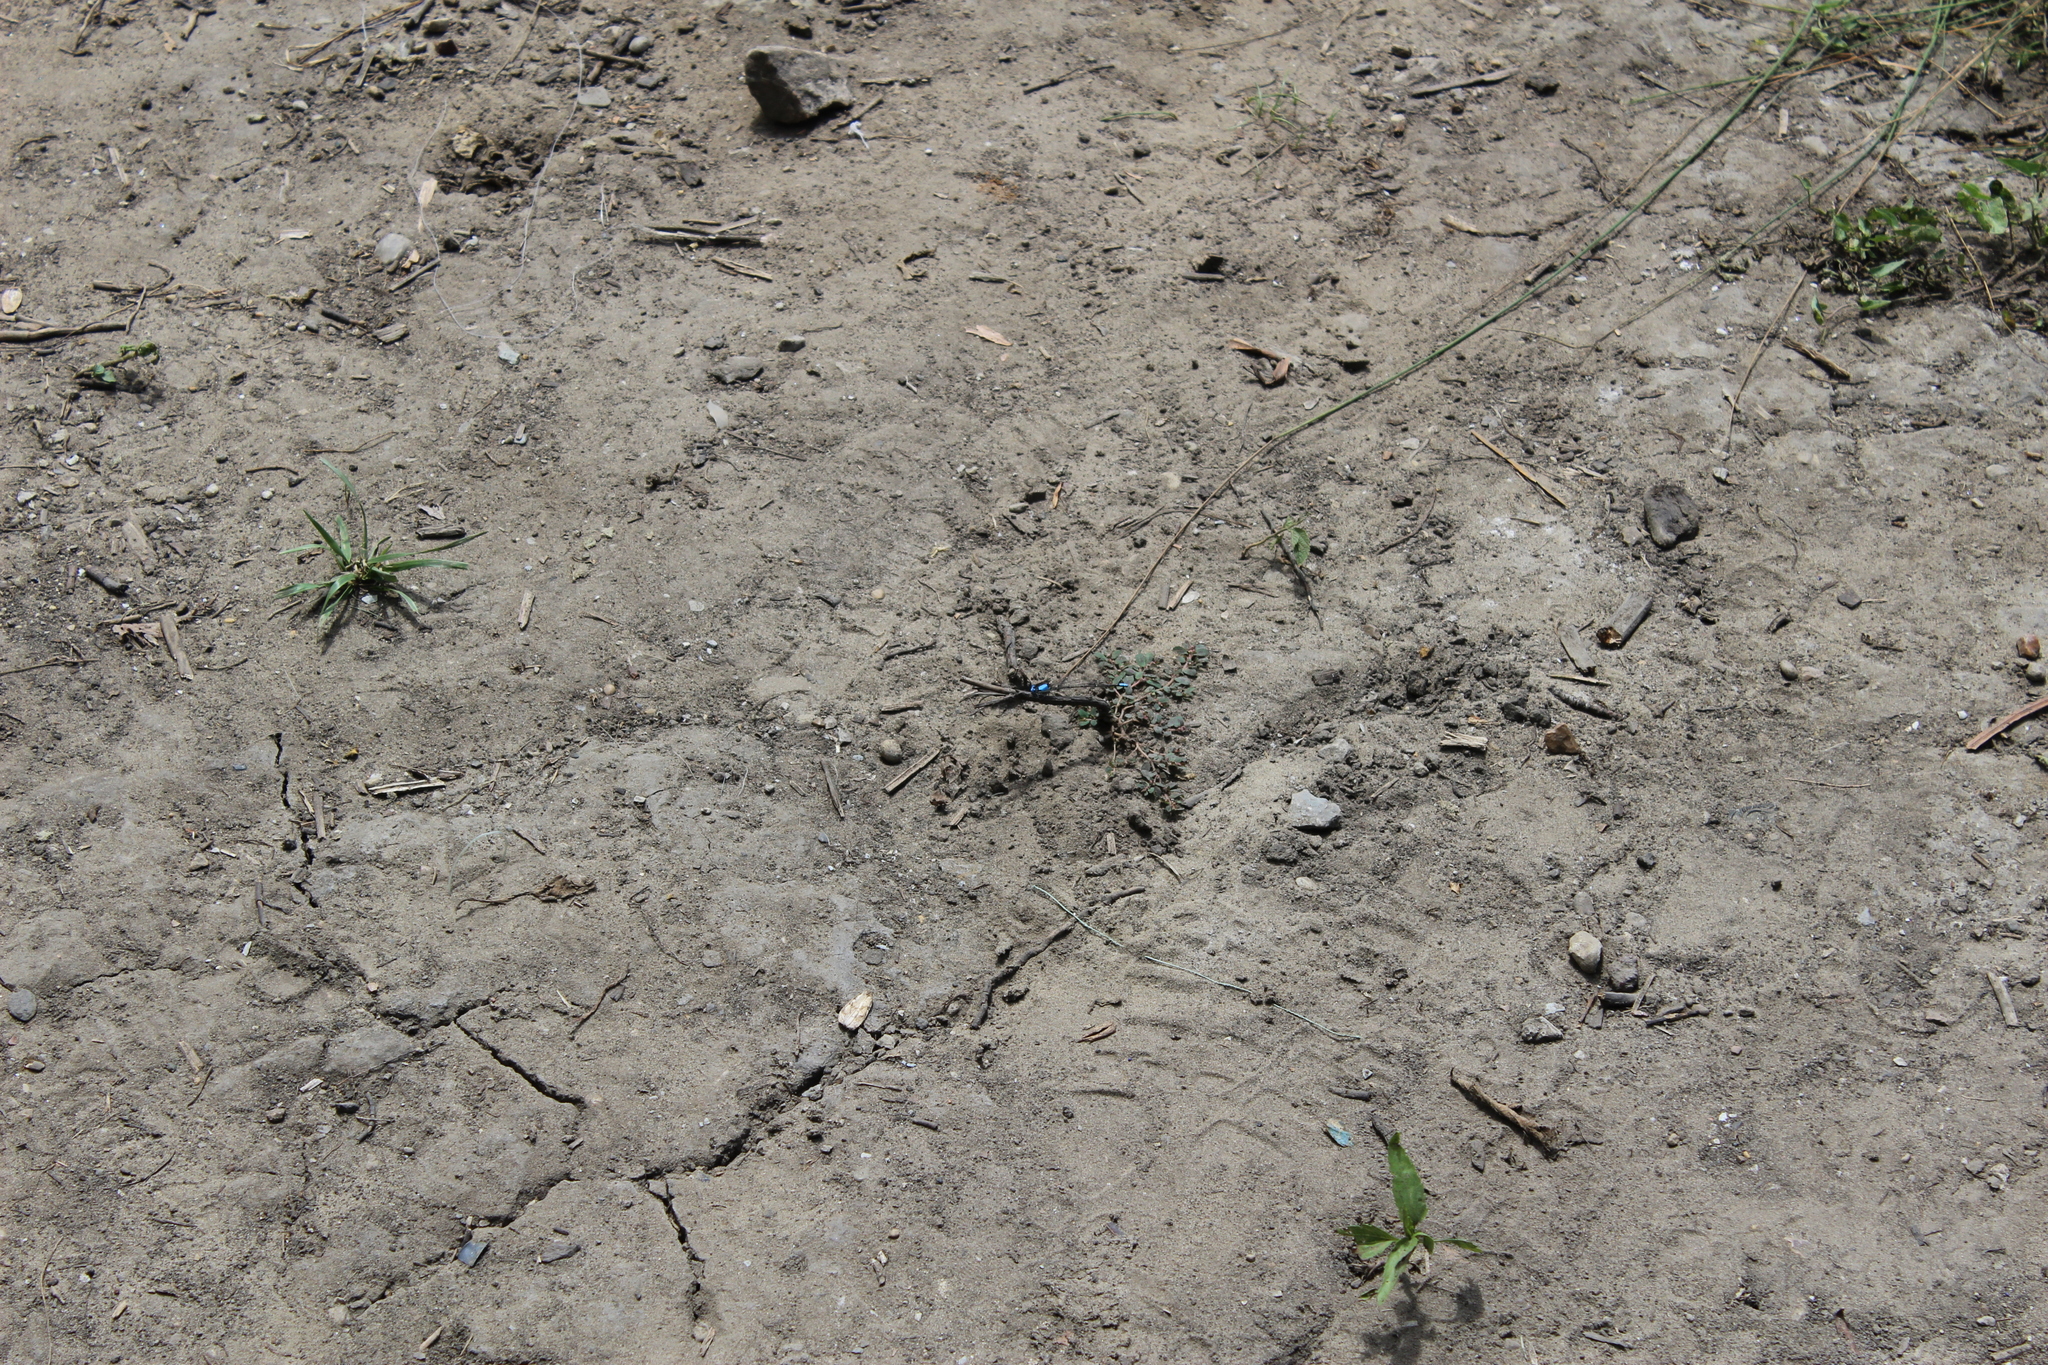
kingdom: Animalia
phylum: Arthropoda
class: Insecta
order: Odonata
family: Coenagrionidae
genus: Argia
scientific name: Argia apicalis
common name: Blue-fronted dancer
